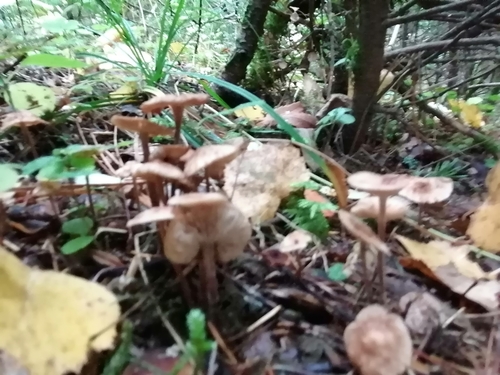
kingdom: Fungi
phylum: Basidiomycota
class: Agaricomycetes
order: Agaricales
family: Omphalotaceae
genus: Paragymnopus
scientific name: Paragymnopus perforans
